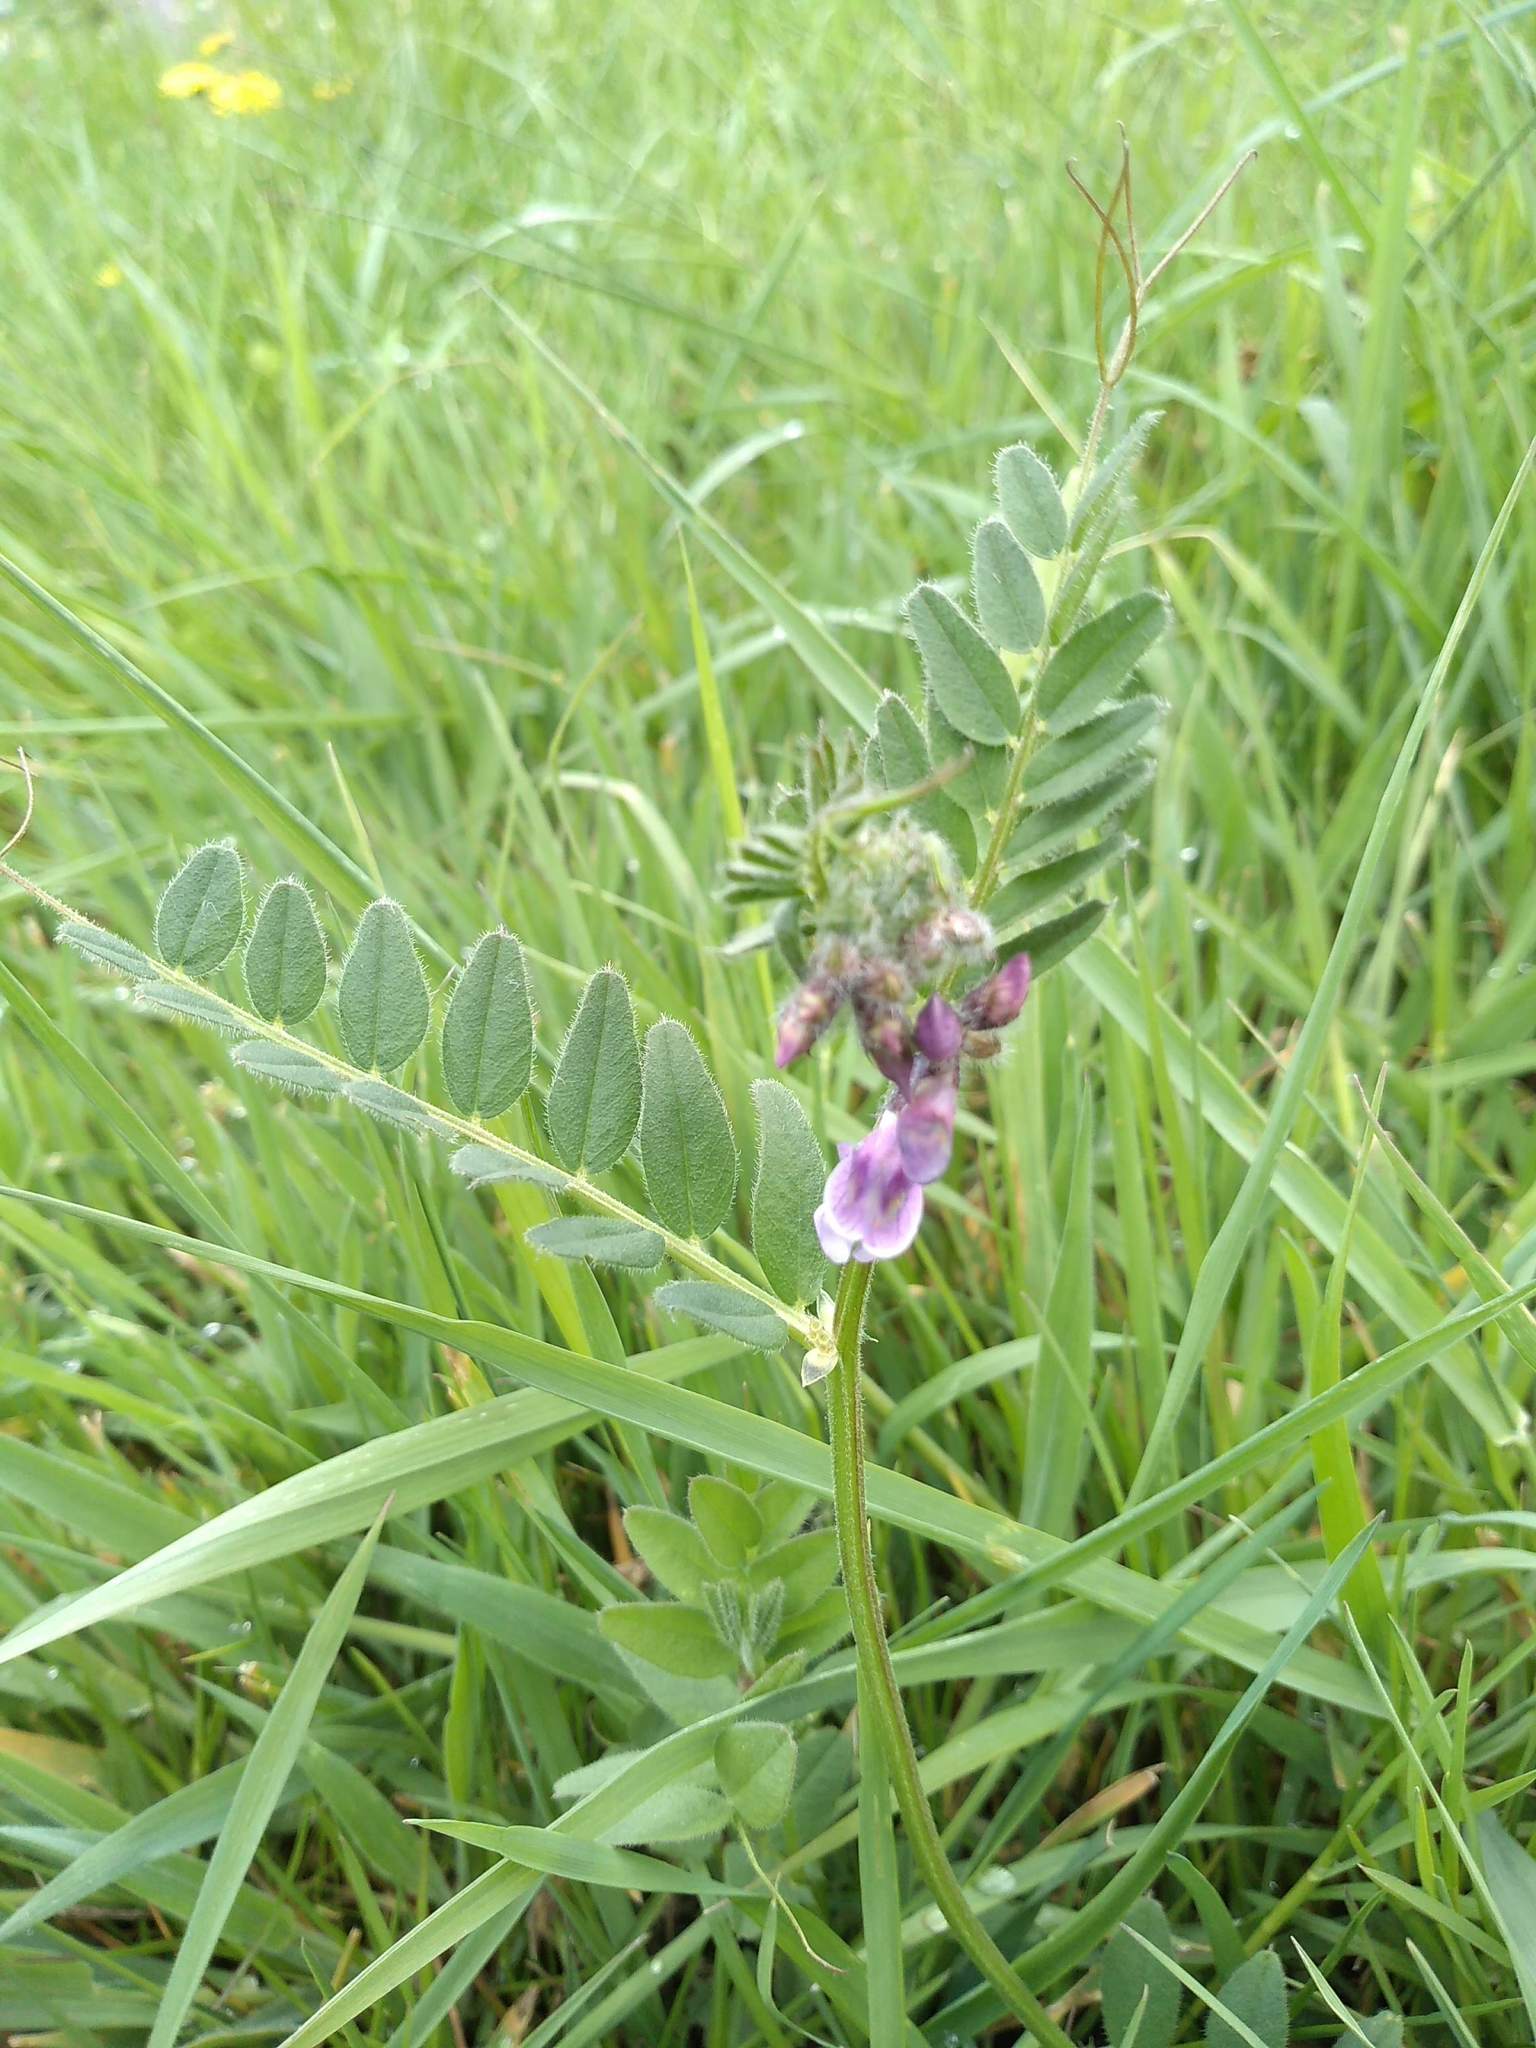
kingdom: Plantae
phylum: Tracheophyta
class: Magnoliopsida
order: Fabales
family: Fabaceae
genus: Vicia
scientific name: Vicia sepium
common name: Bush vetch
